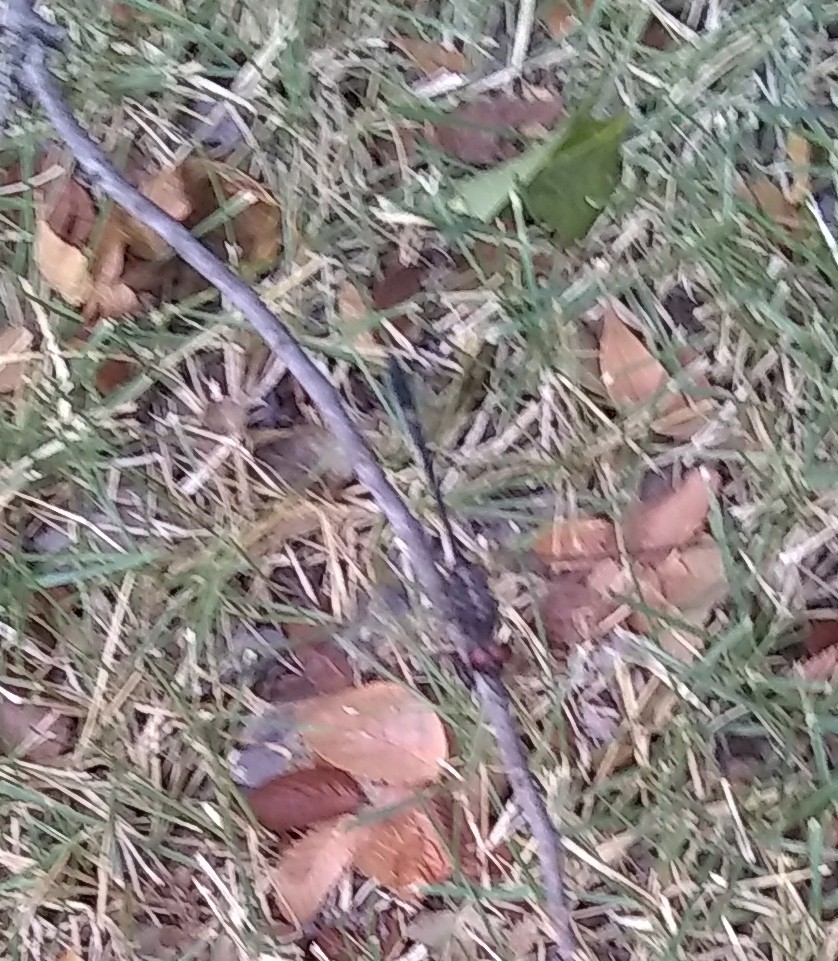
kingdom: Animalia
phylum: Arthropoda
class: Insecta
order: Odonata
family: Libellulidae
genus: Dythemis
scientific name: Dythemis velox
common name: Swift setwing
